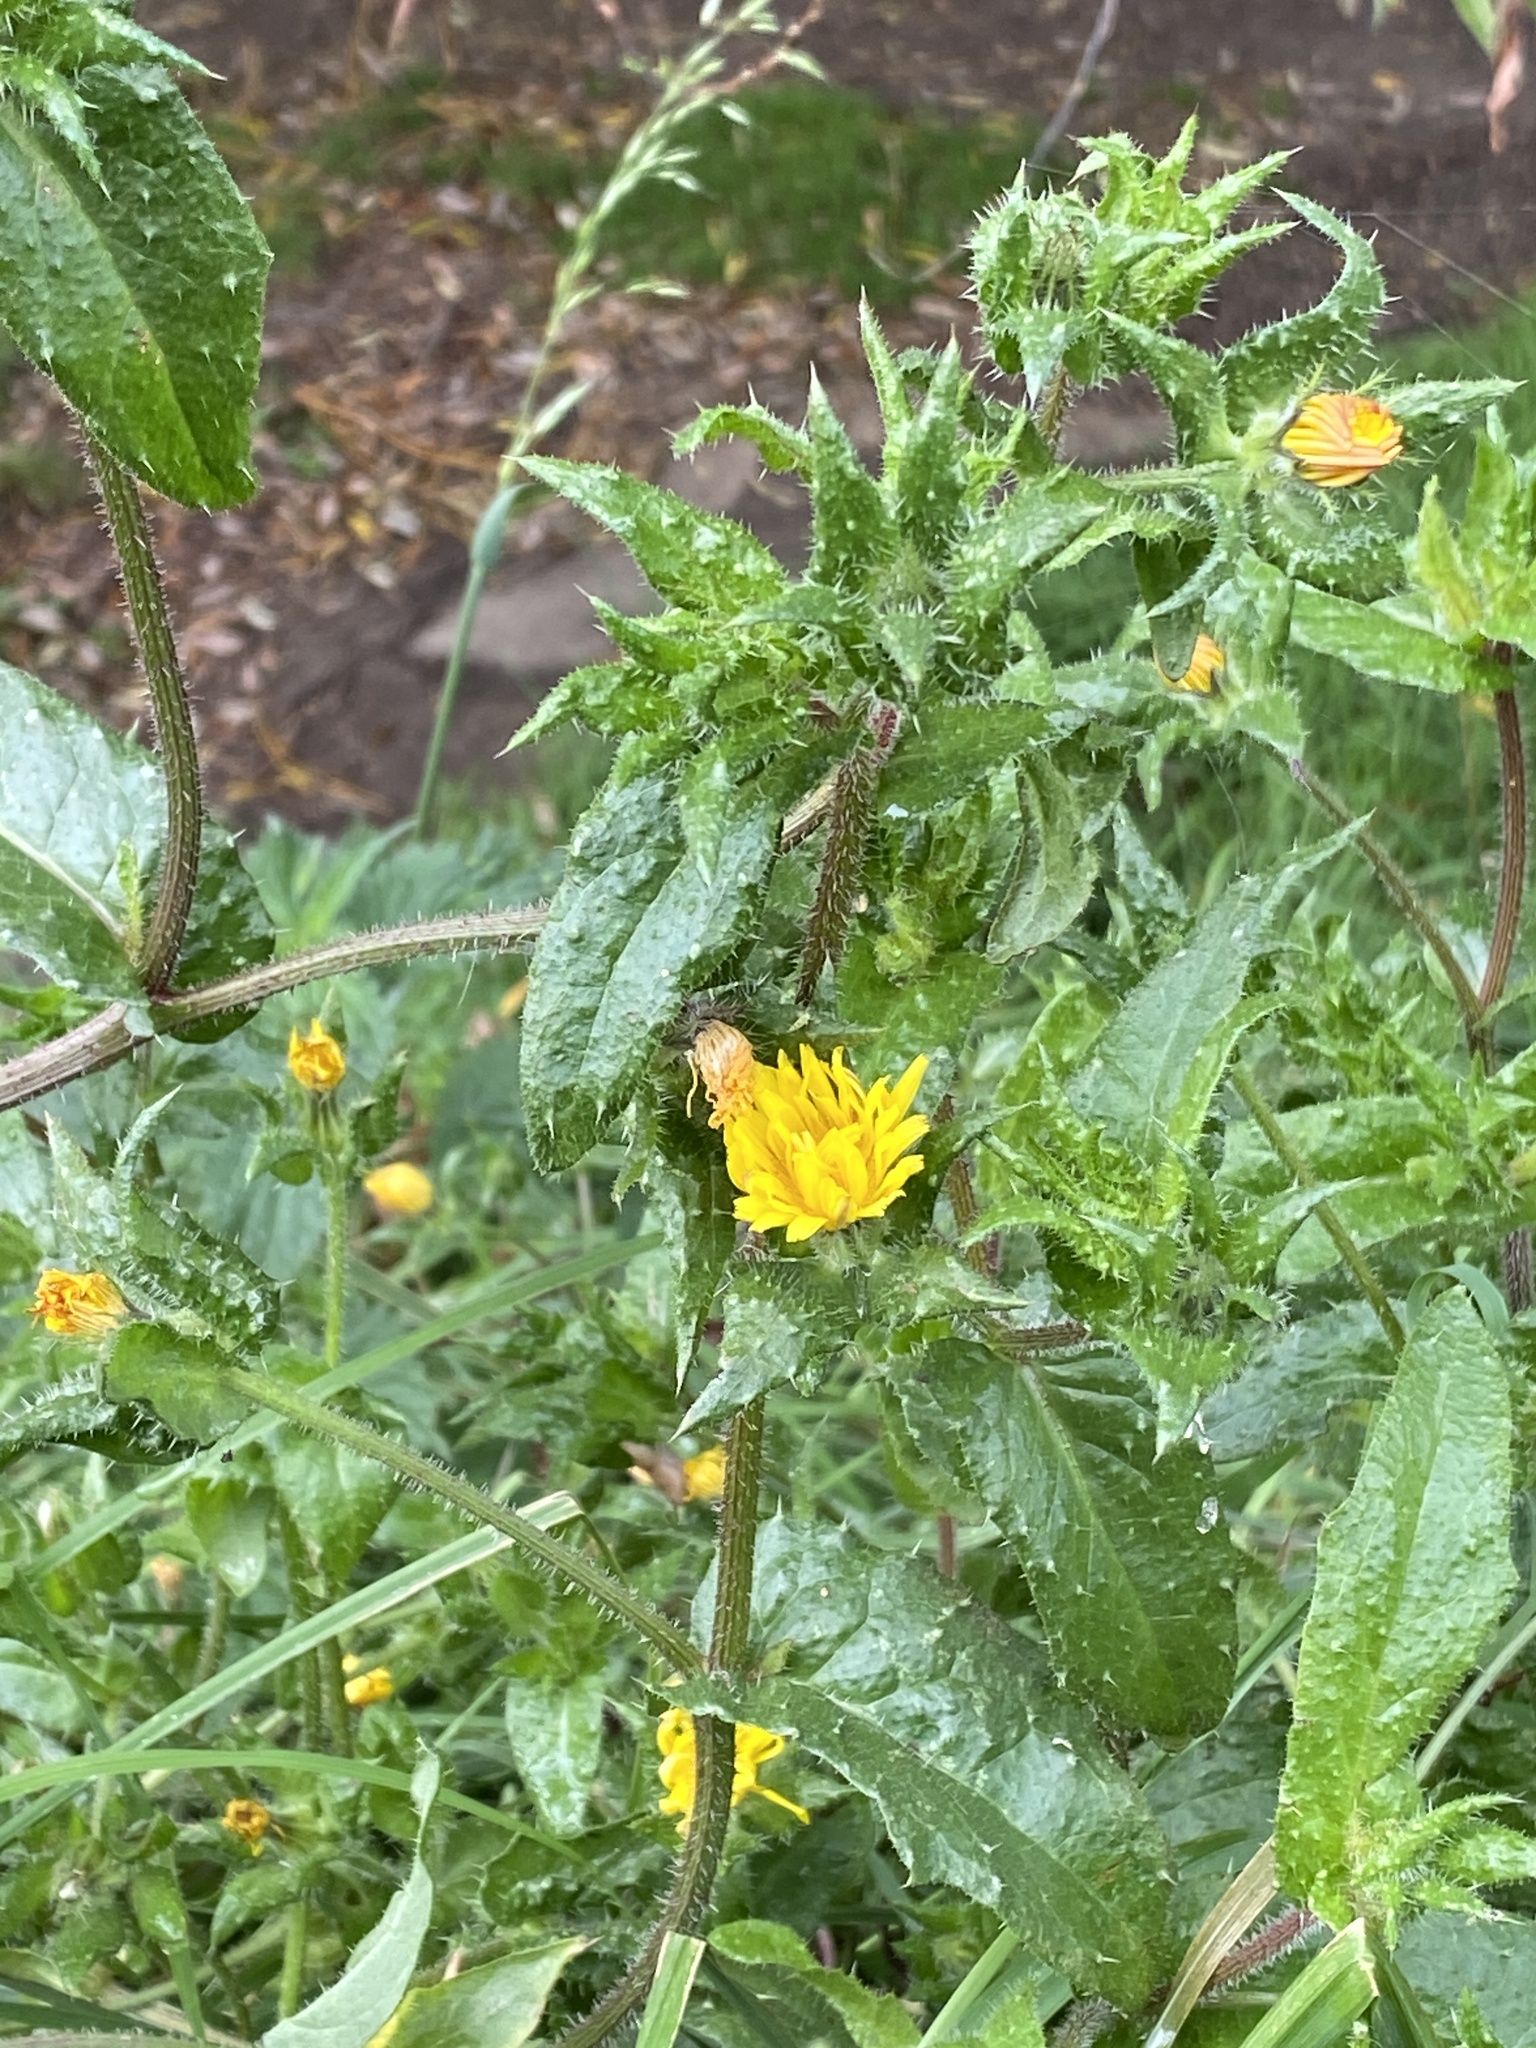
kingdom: Plantae
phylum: Tracheophyta
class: Magnoliopsida
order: Asterales
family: Asteraceae
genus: Helminthotheca
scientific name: Helminthotheca echioides
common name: Ox-tongue
